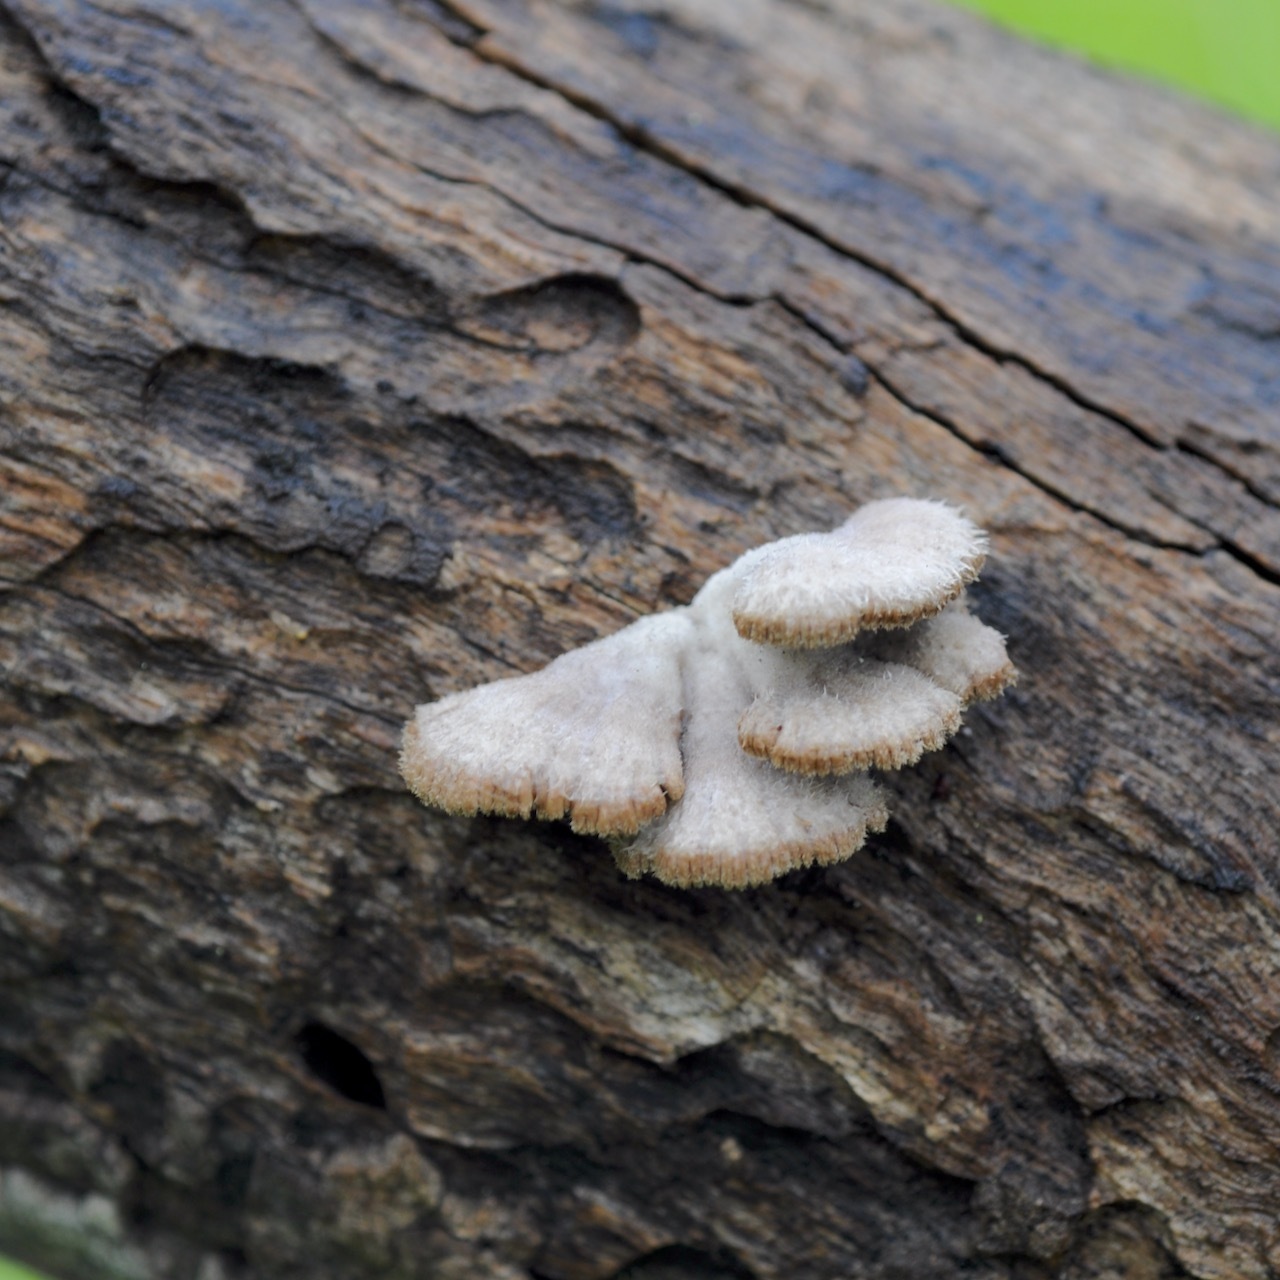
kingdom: Fungi
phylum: Basidiomycota
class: Agaricomycetes
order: Agaricales
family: Schizophyllaceae
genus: Schizophyllum
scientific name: Schizophyllum commune
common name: Common porecrust
